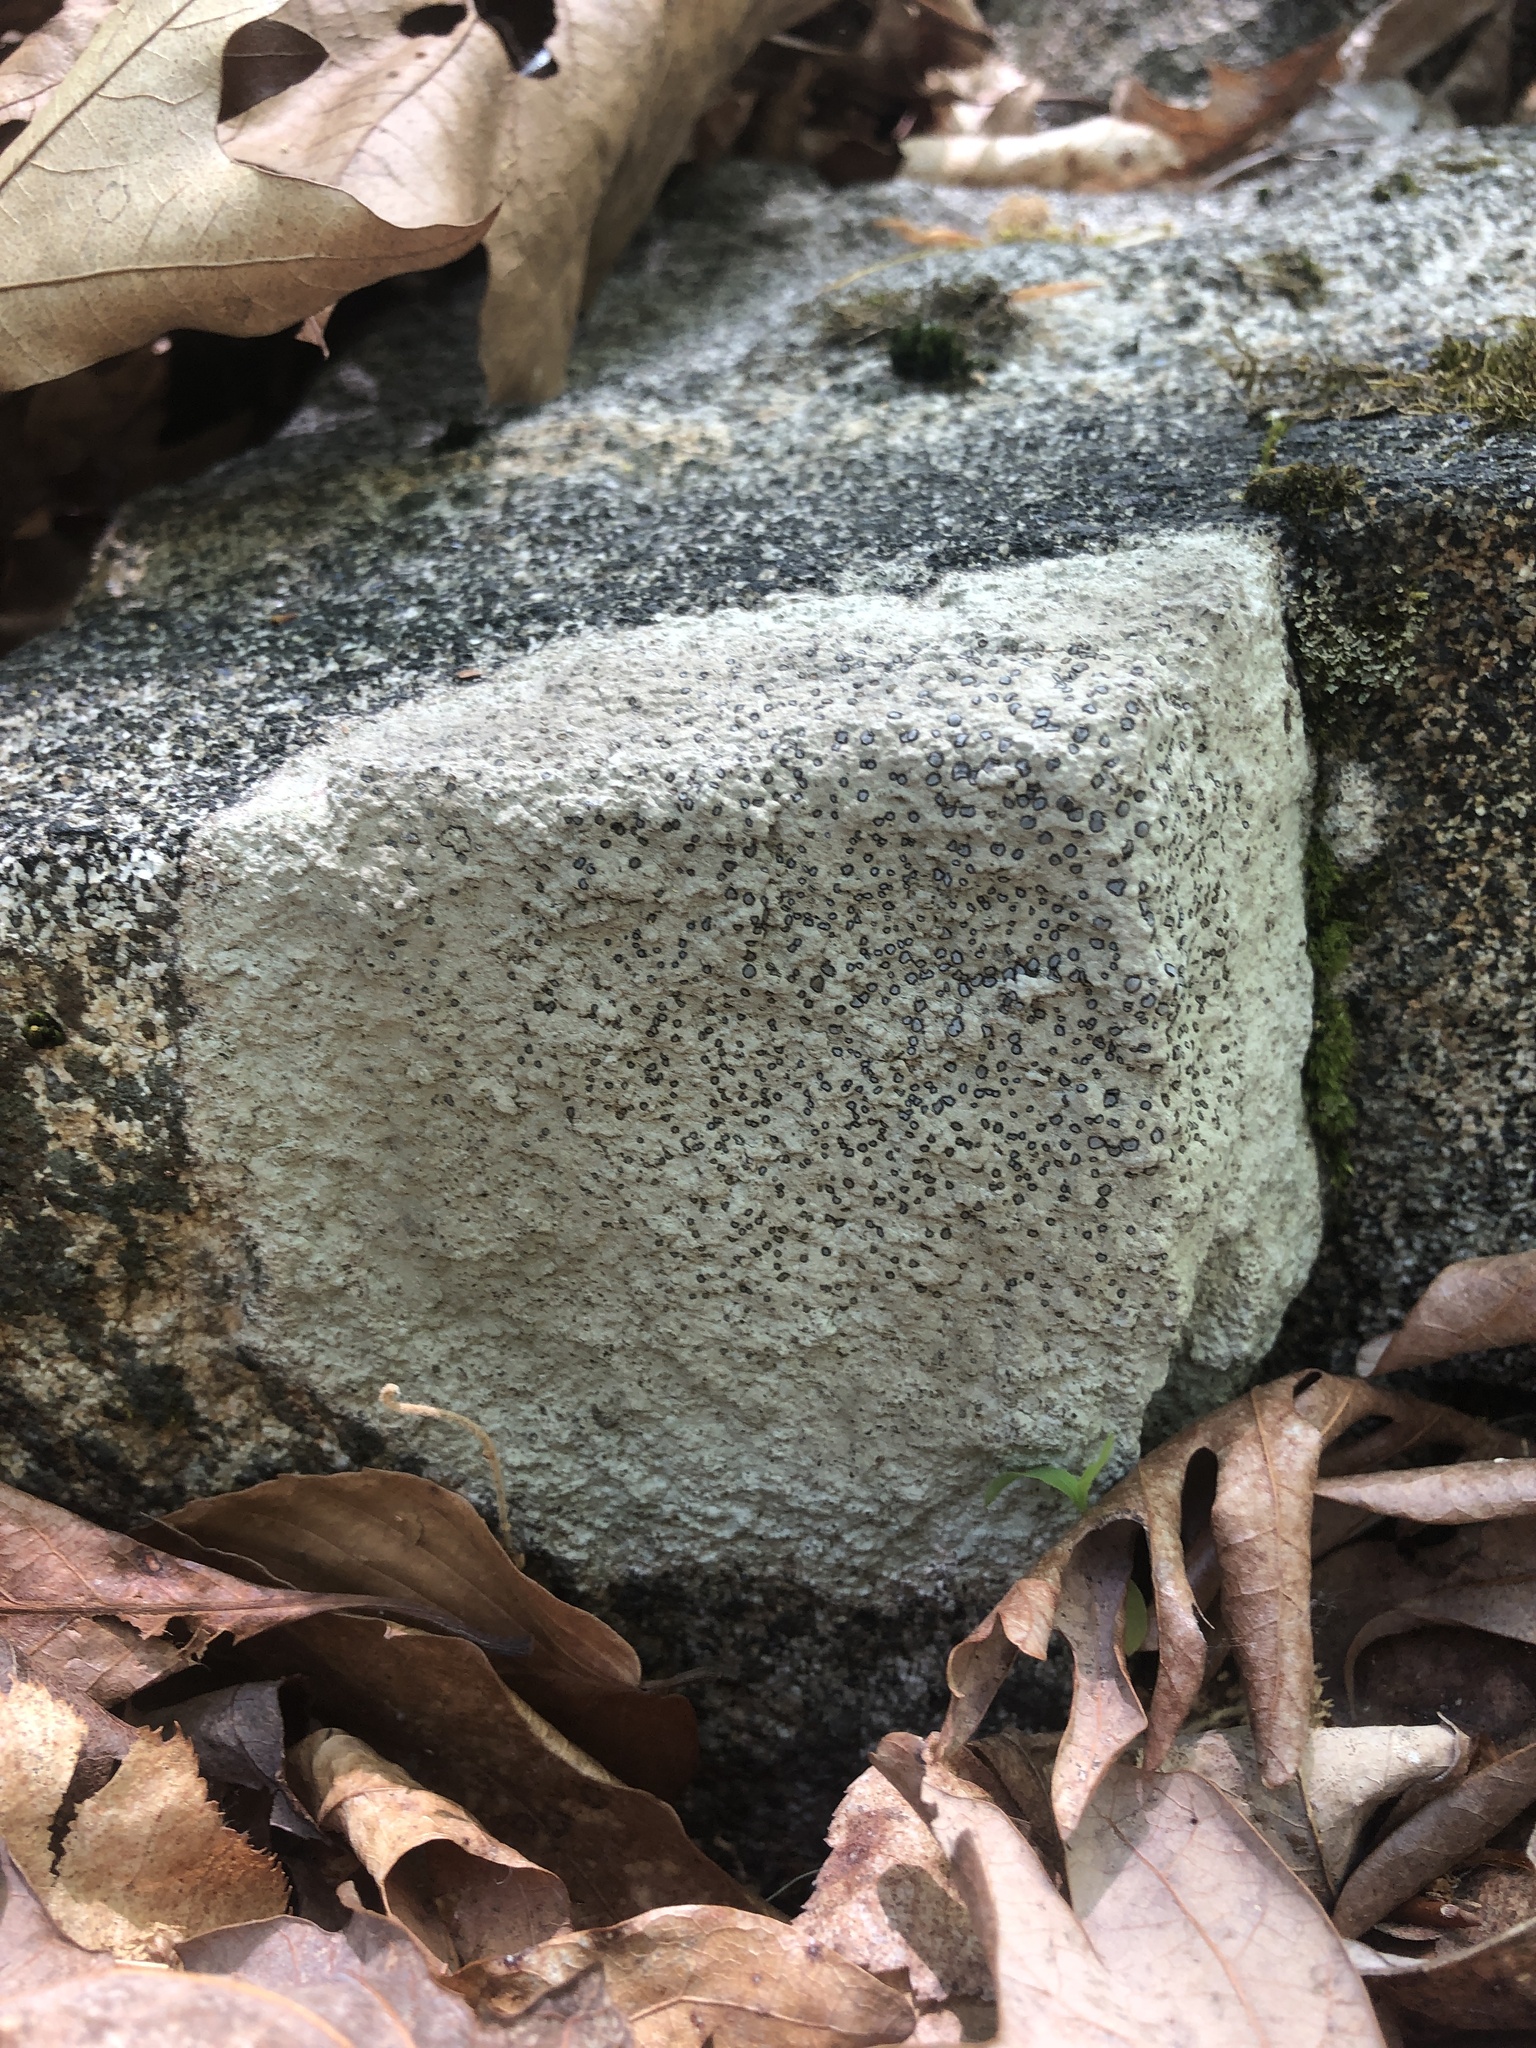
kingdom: Fungi
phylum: Ascomycota
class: Lecanoromycetes
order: Lecideales
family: Lecideaceae
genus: Porpidia
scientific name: Porpidia albocaerulescens
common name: Smokey-eyed boulder lichen
